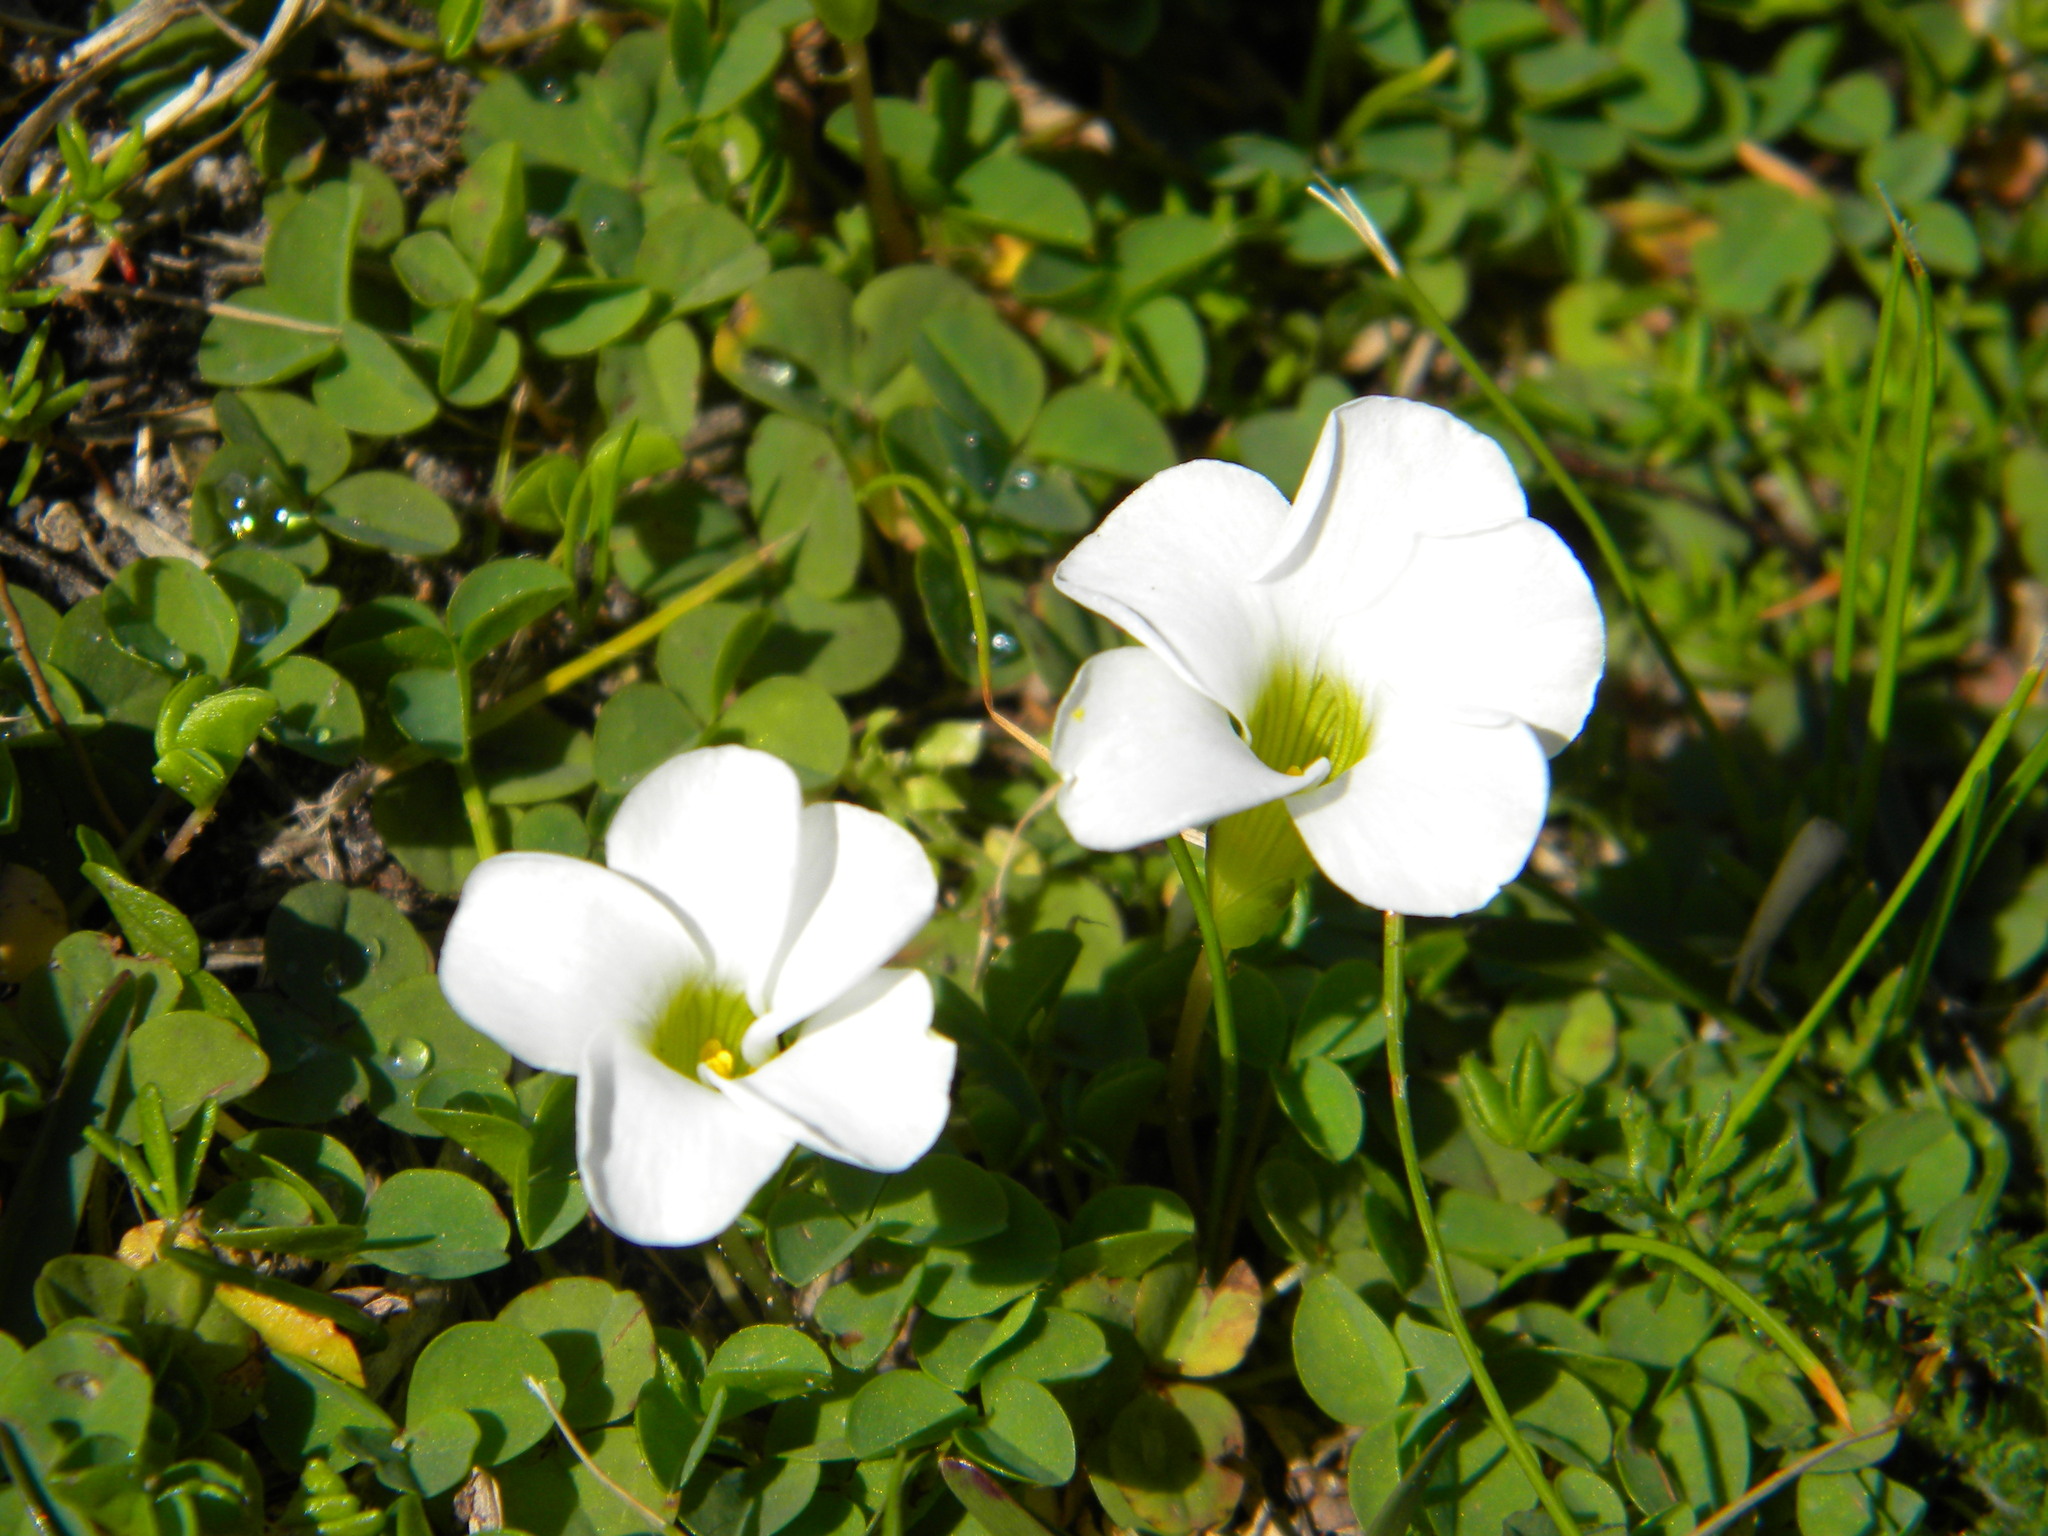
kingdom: Plantae
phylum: Tracheophyta
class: Magnoliopsida
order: Oxalidales
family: Oxalidaceae
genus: Oxalis
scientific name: Oxalis minuta
